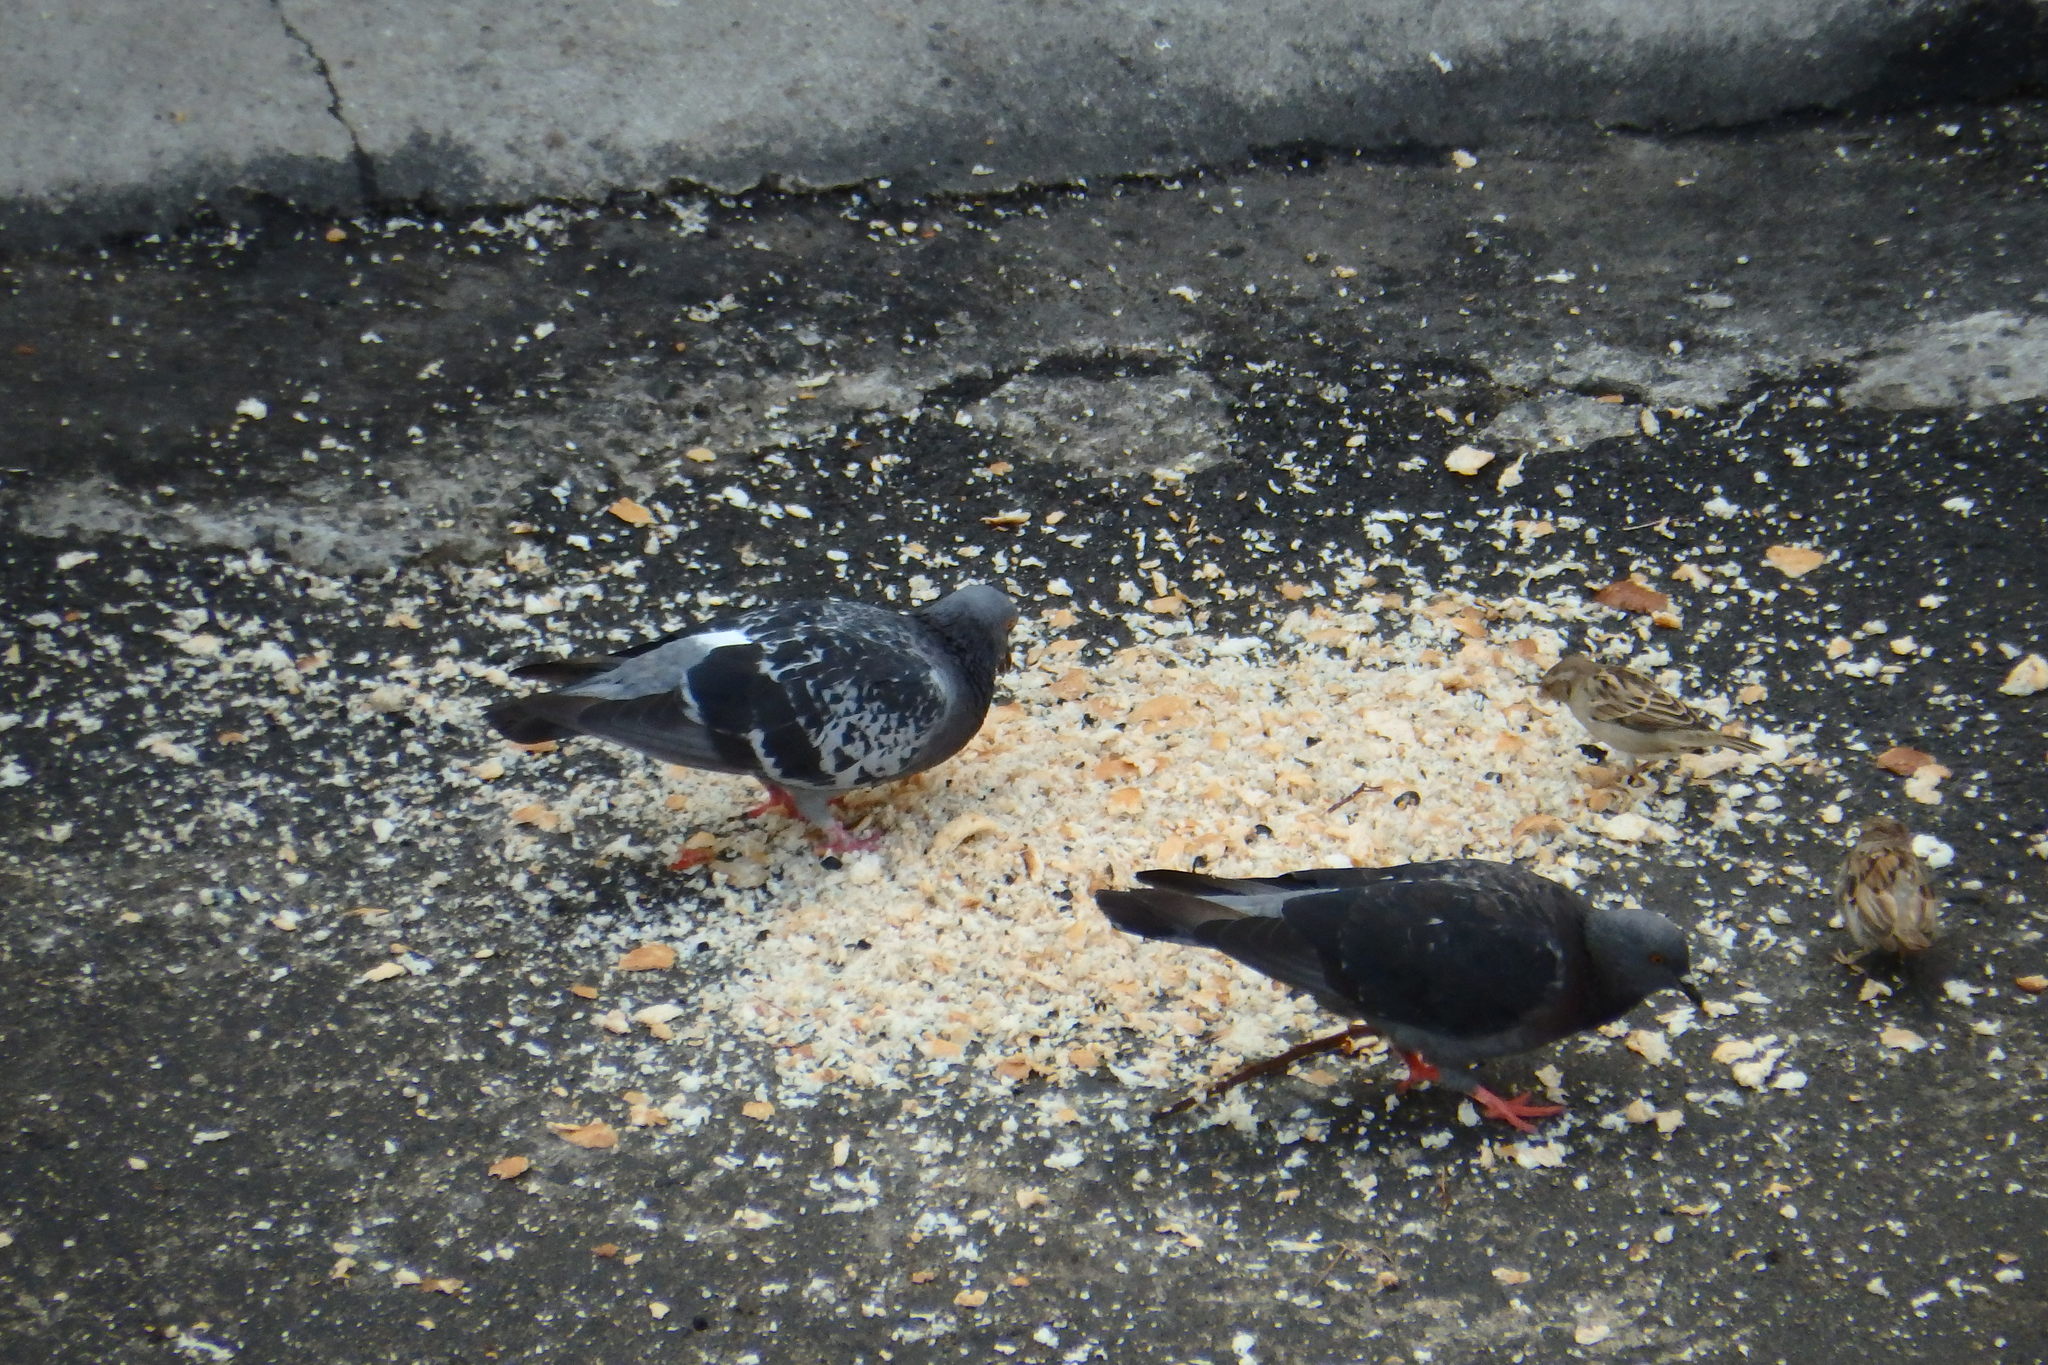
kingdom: Animalia
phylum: Chordata
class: Aves
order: Columbiformes
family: Columbidae
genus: Columba
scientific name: Columba livia
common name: Rock pigeon
